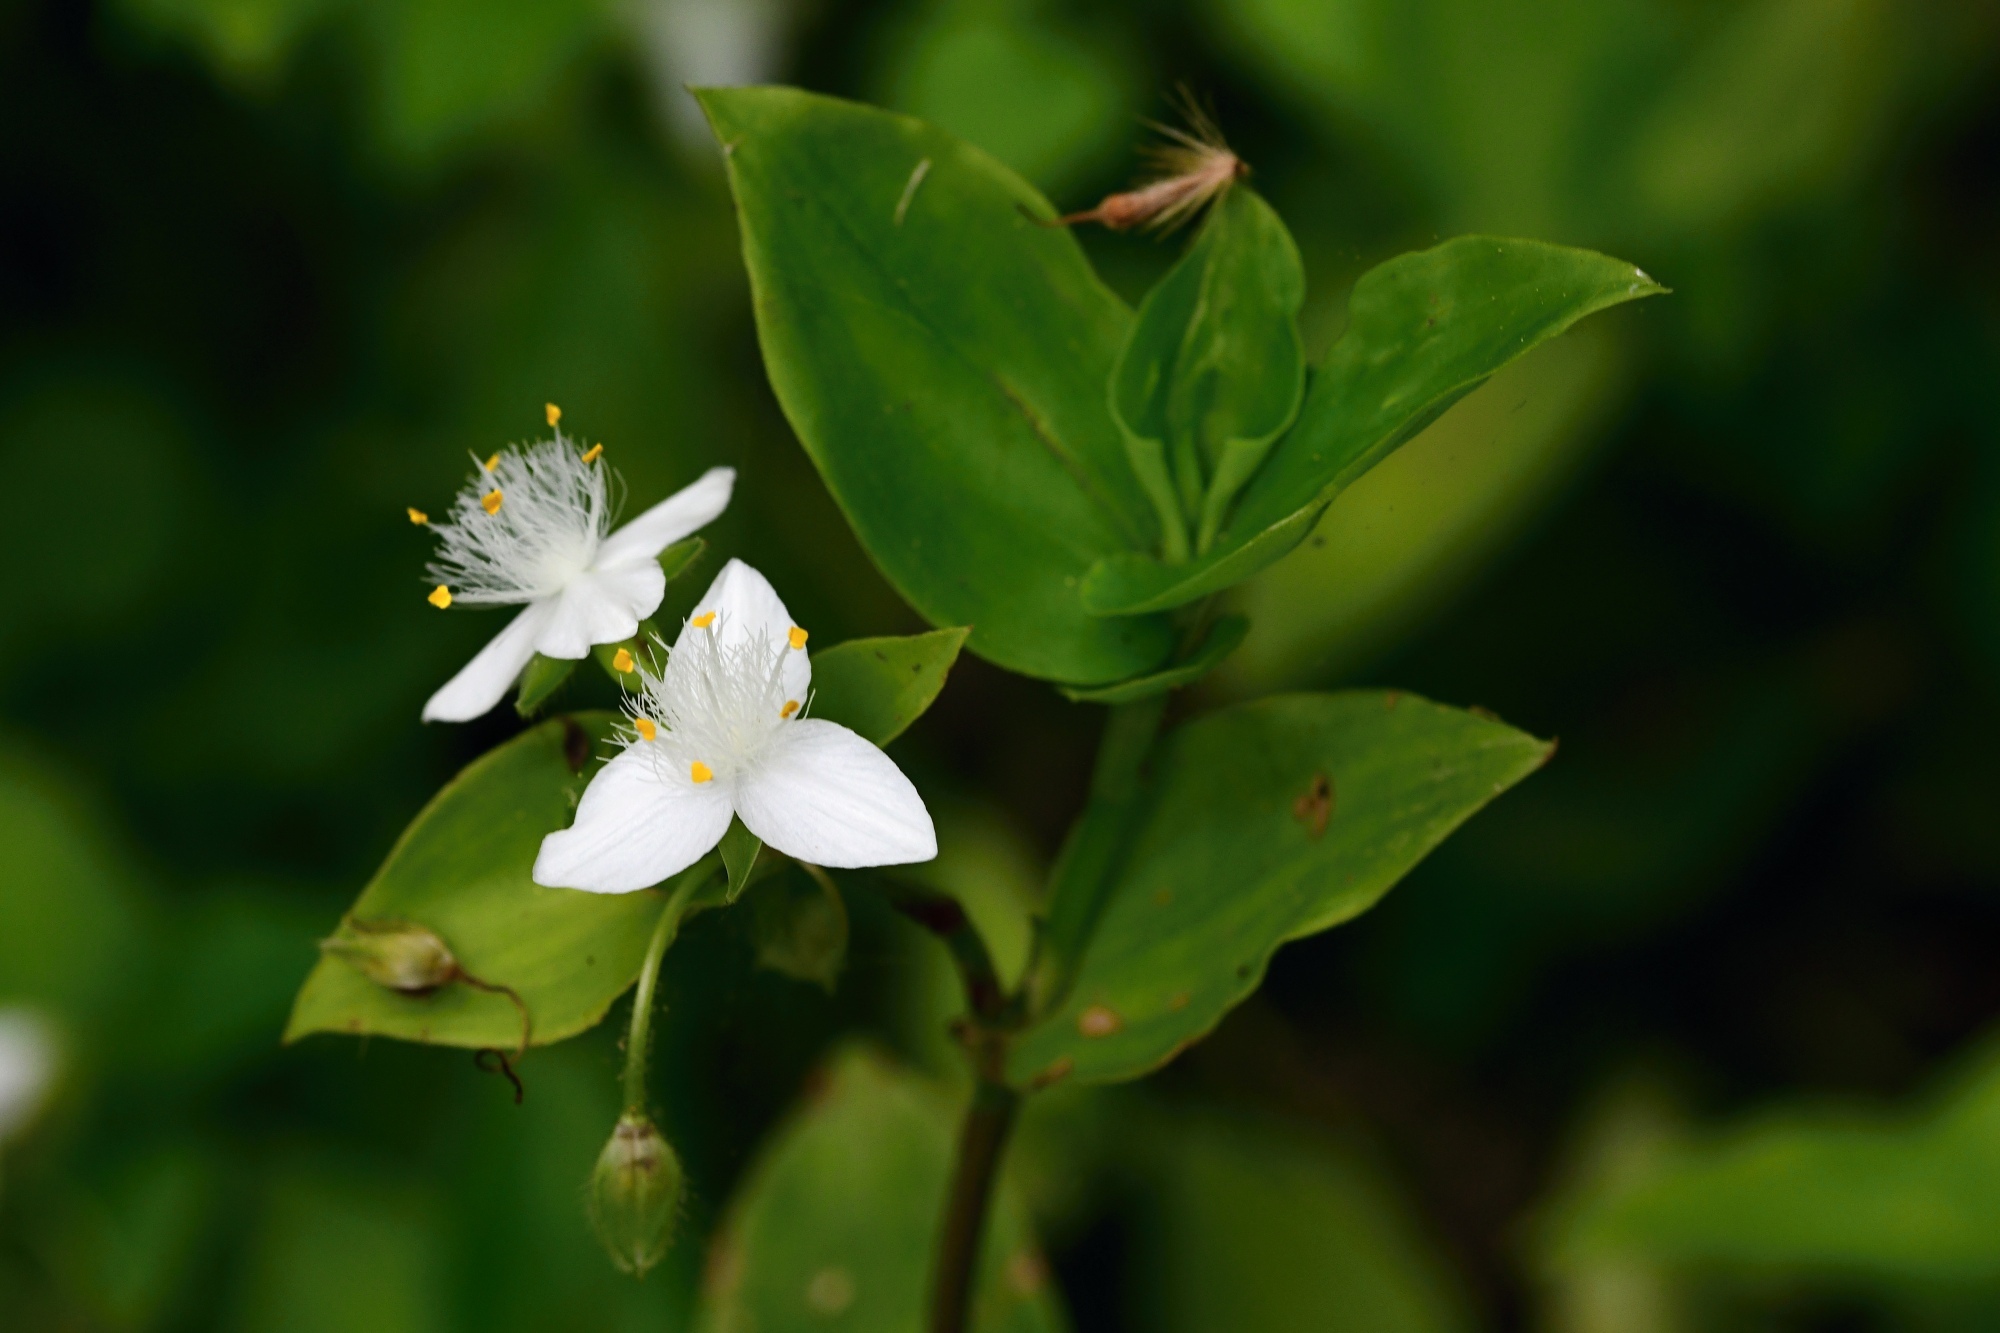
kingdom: Plantae
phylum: Tracheophyta
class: Liliopsida
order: Commelinales
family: Commelinaceae
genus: Tradescantia
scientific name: Tradescantia fluminensis
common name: Wandering-jew
